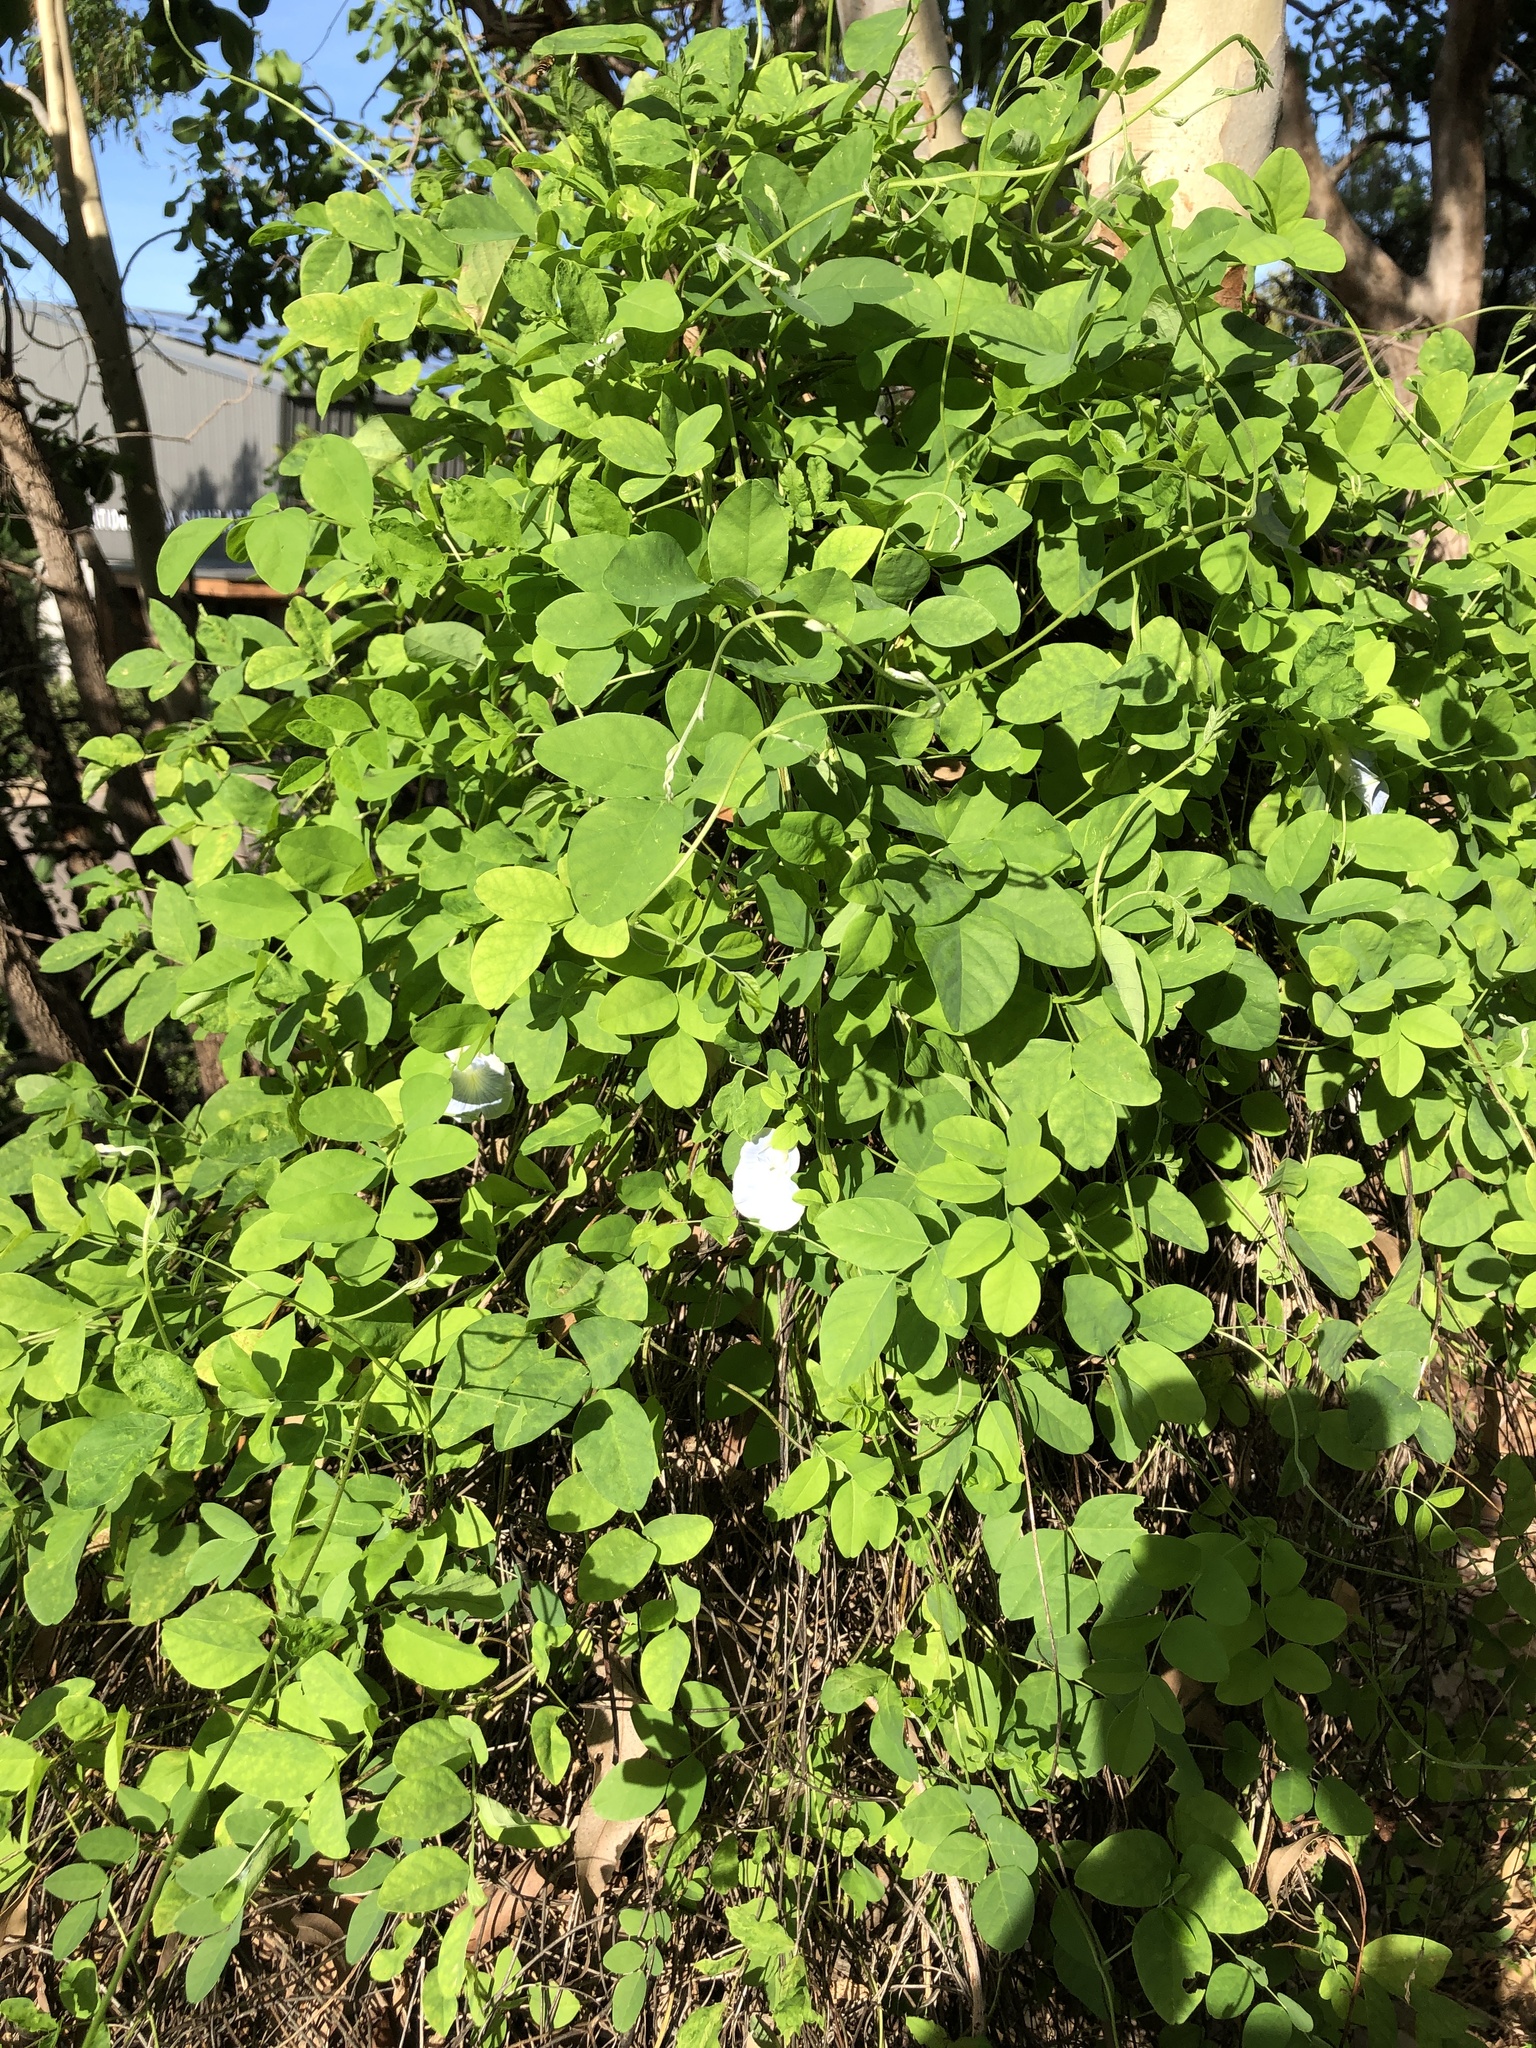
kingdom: Plantae
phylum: Tracheophyta
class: Magnoliopsida
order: Fabales
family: Fabaceae
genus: Clitoria
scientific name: Clitoria ternatea
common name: Asian pigeonwings
